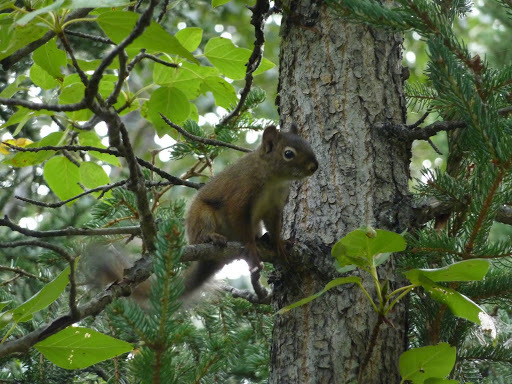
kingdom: Animalia
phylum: Chordata
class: Mammalia
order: Rodentia
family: Sciuridae
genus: Tamiasciurus
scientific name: Tamiasciurus hudsonicus
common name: Red squirrel
